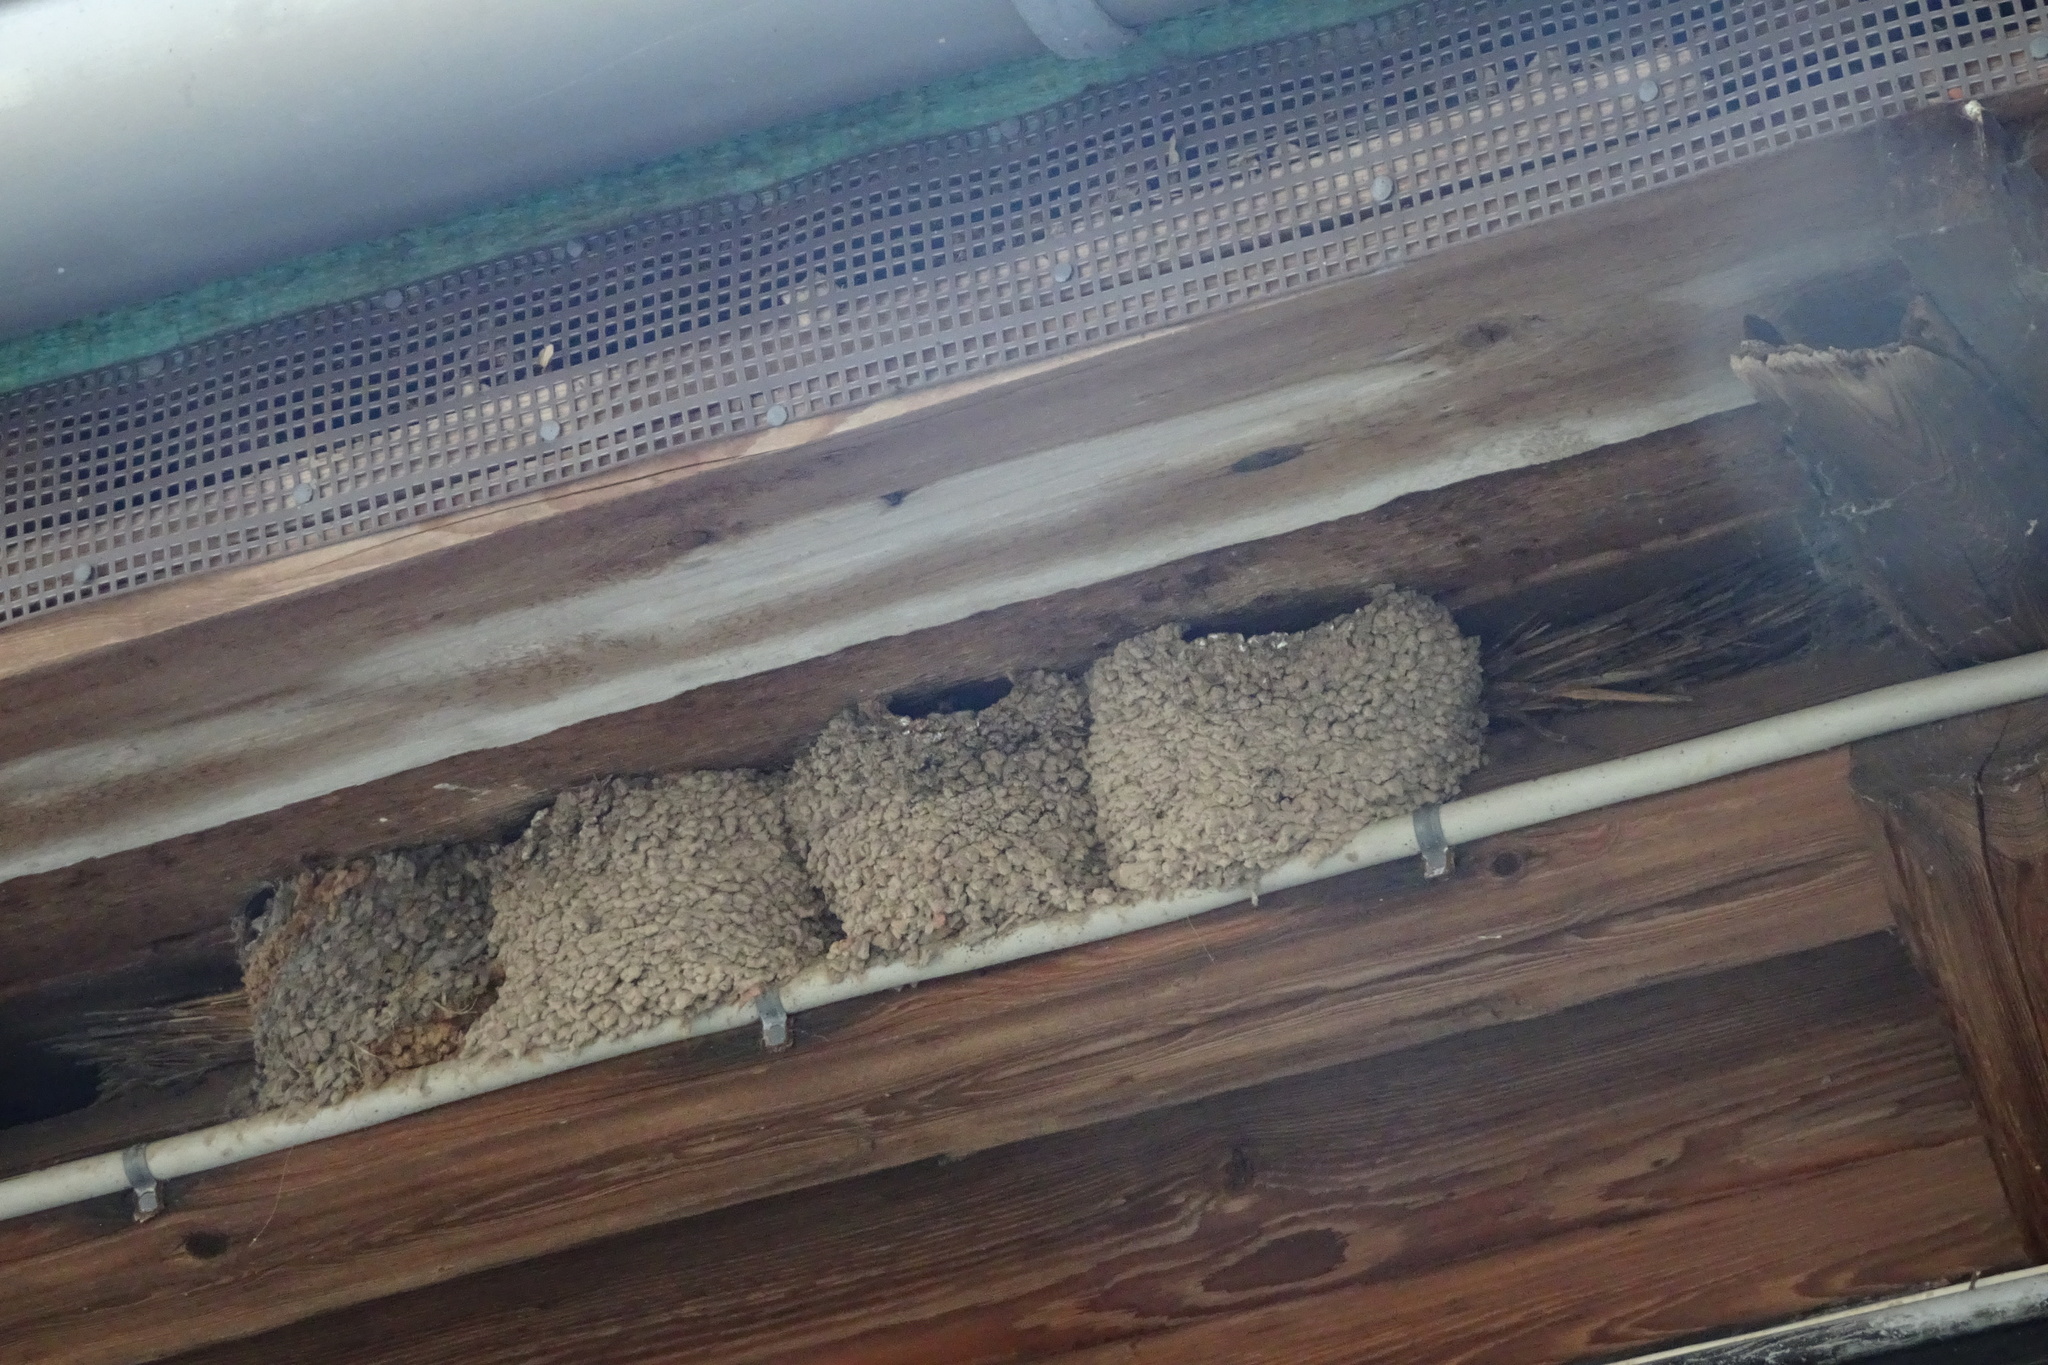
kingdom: Animalia
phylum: Chordata
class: Aves
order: Passeriformes
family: Hirundinidae
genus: Delichon
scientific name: Delichon urbicum
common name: Common house martin
